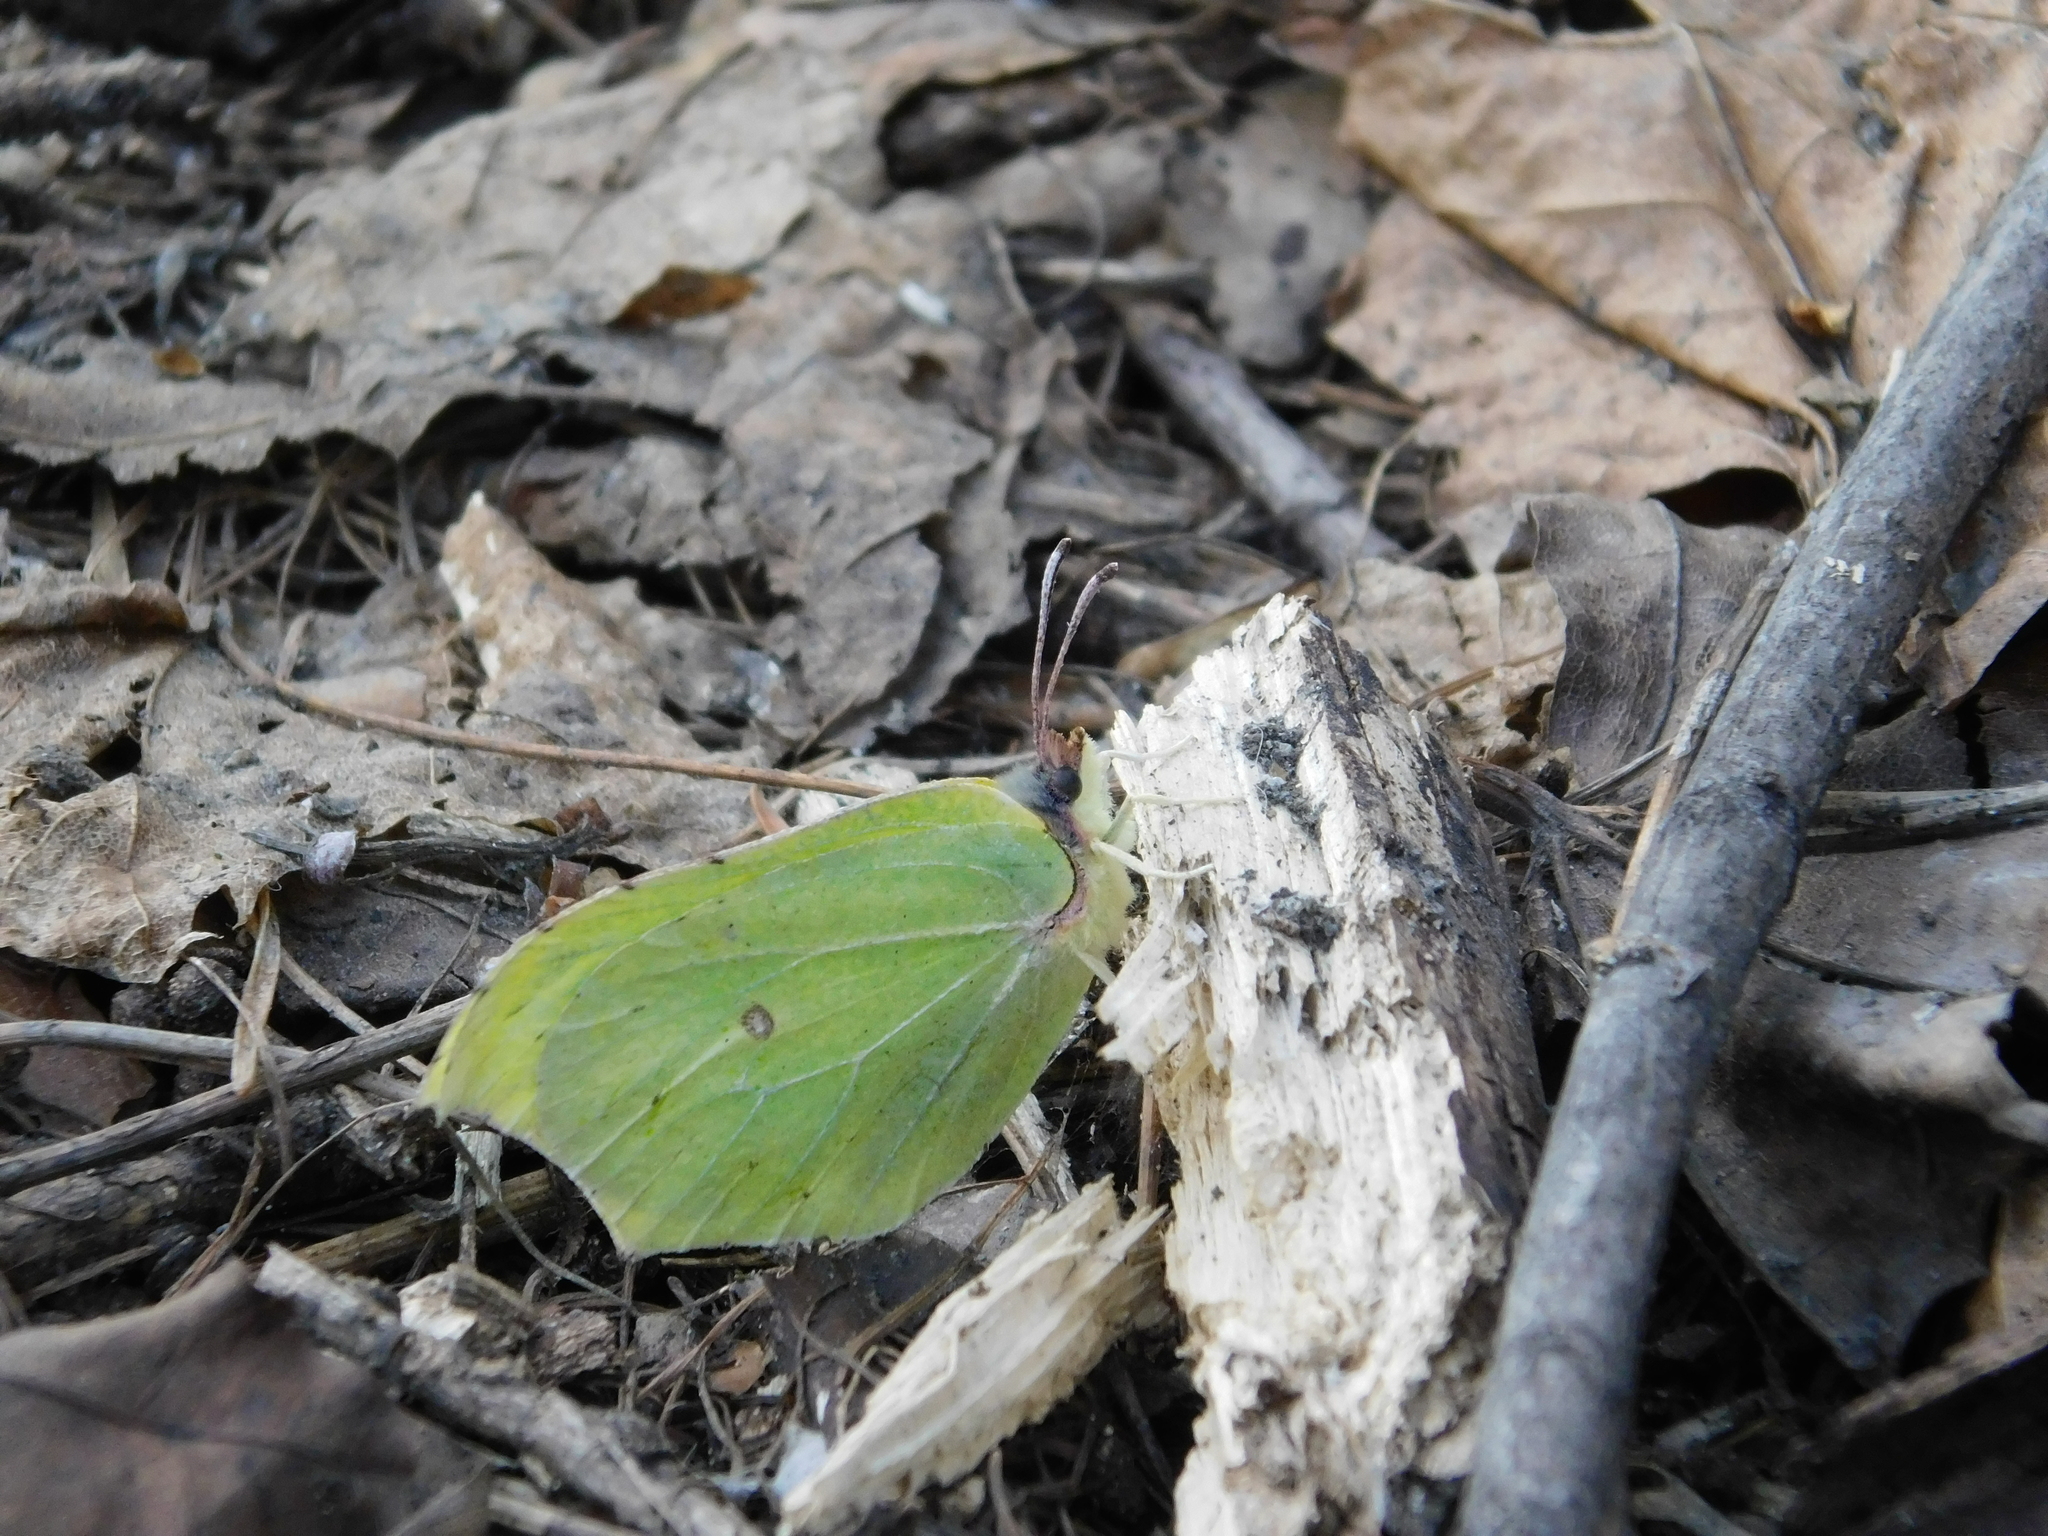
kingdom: Animalia
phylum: Arthropoda
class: Insecta
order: Lepidoptera
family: Pieridae
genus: Gonepteryx
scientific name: Gonepteryx rhamni
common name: Brimstone
